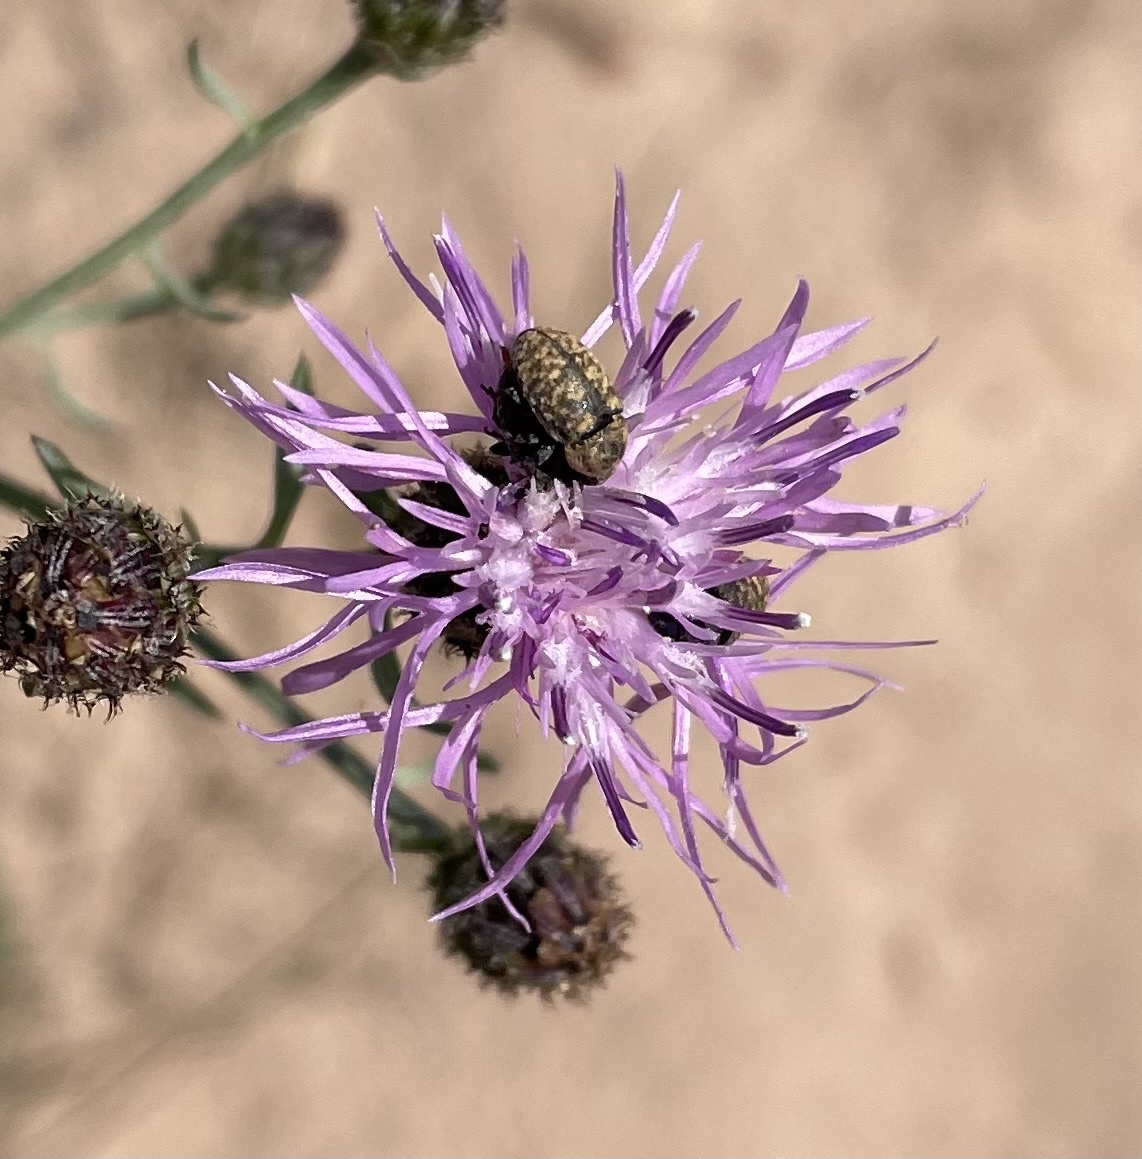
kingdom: Animalia
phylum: Arthropoda
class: Insecta
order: Coleoptera
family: Curculionidae
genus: Larinus
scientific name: Larinus obtusus
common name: Weevil
